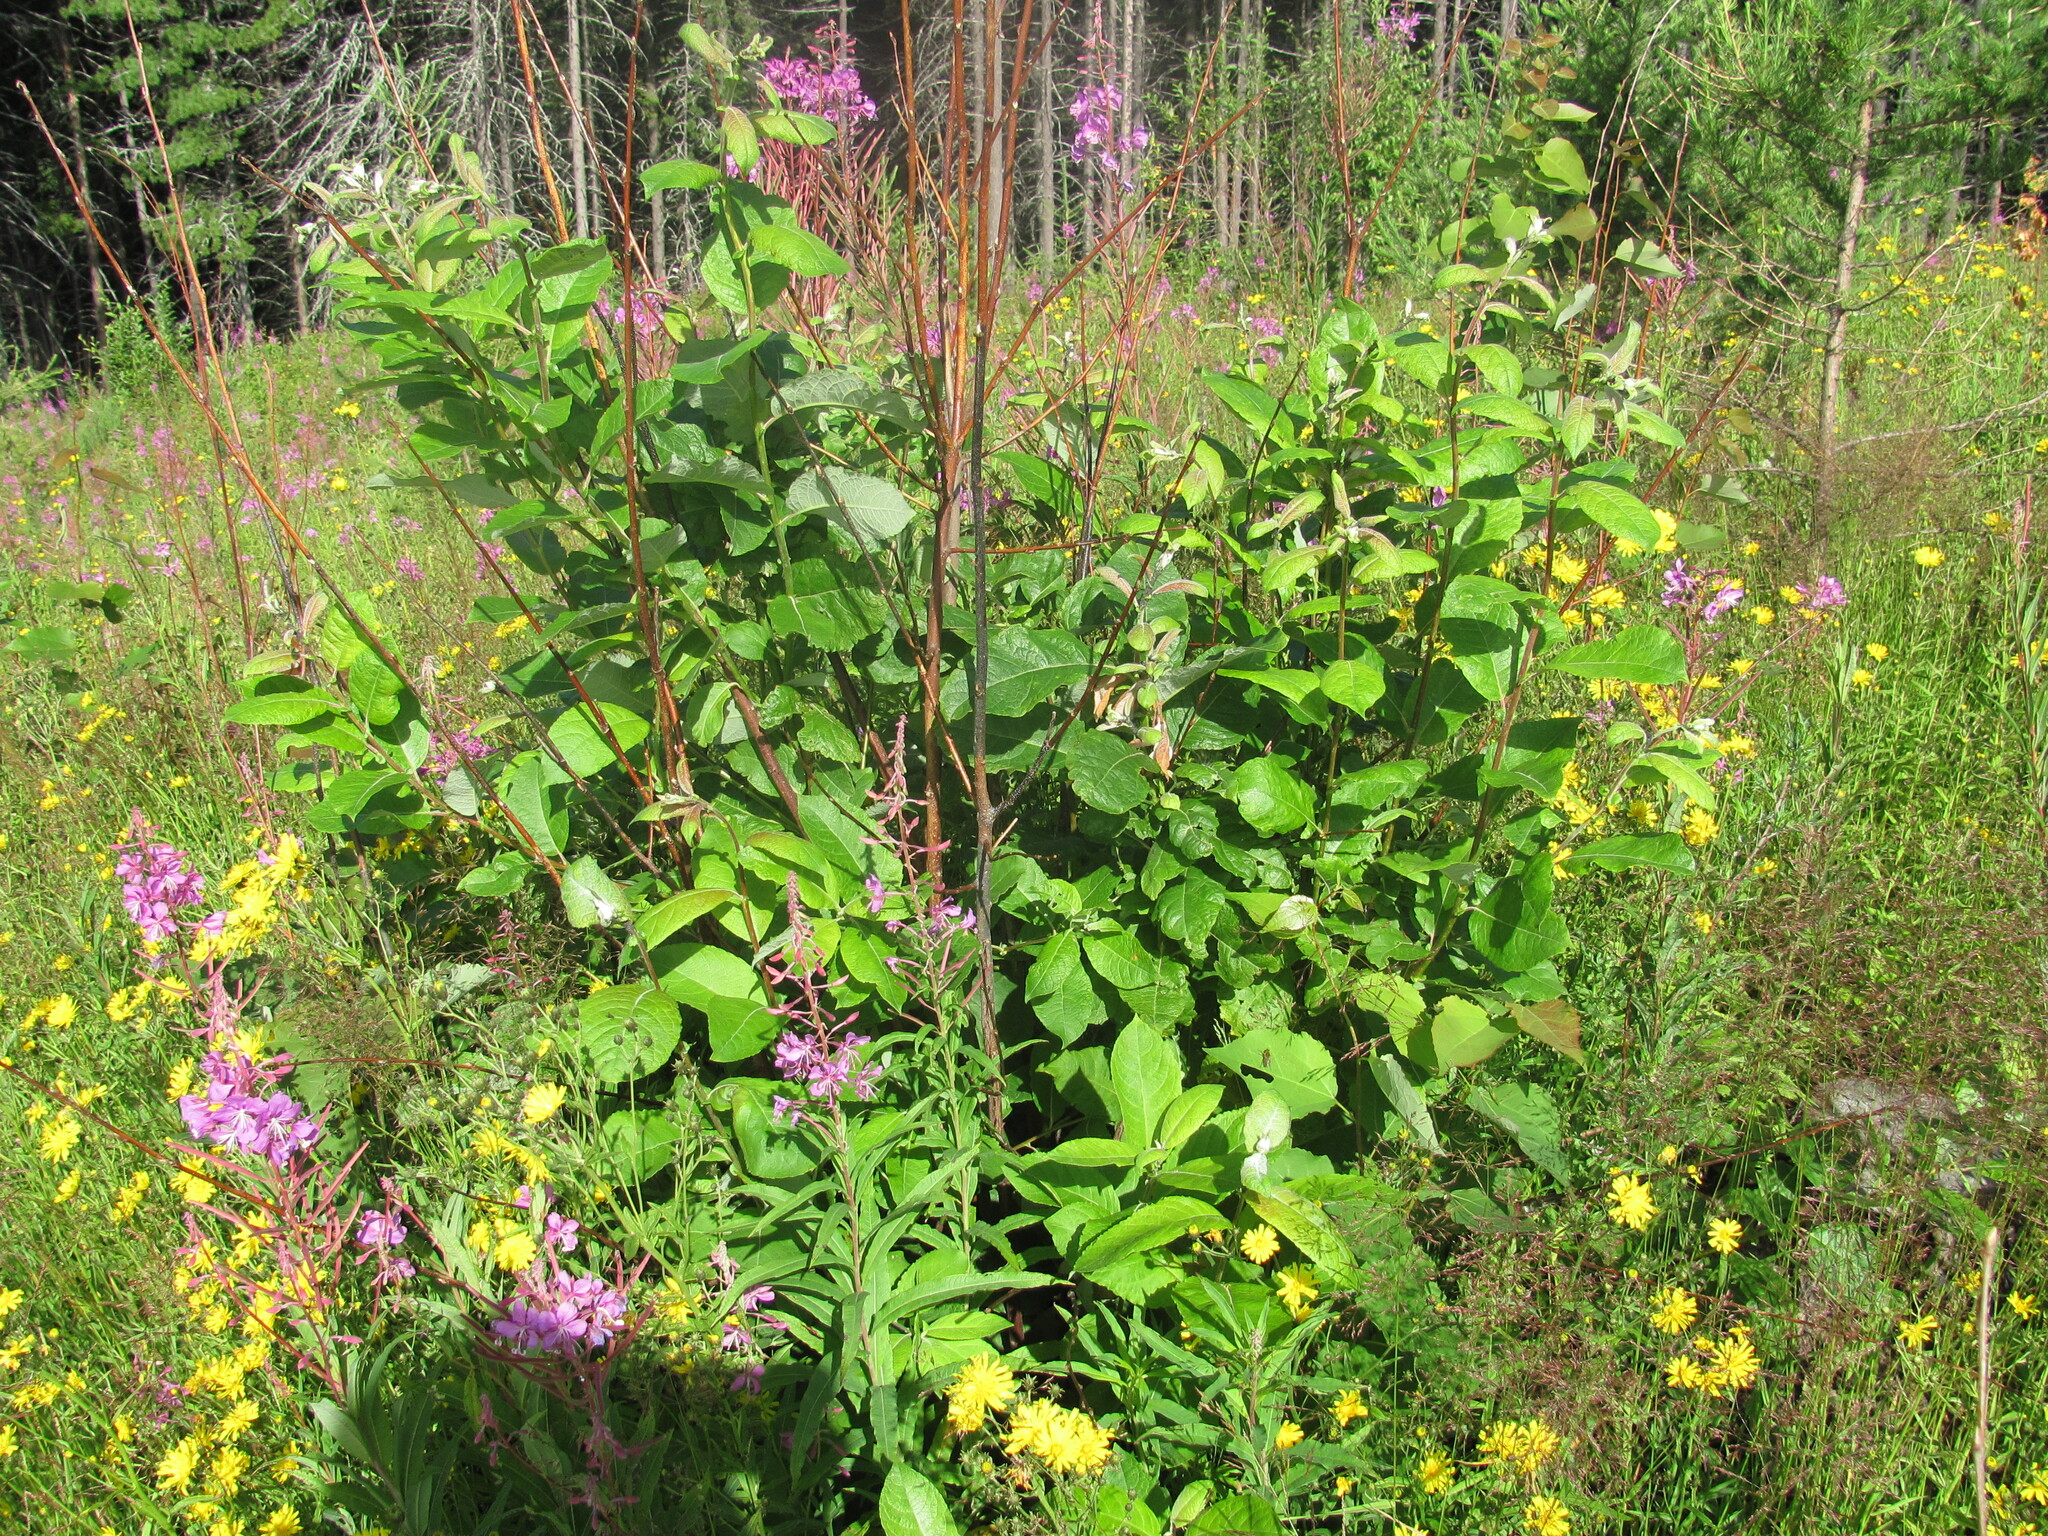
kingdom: Plantae
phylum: Tracheophyta
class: Magnoliopsida
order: Malpighiales
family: Salicaceae
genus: Salix
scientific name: Salix caprea
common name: Goat willow
